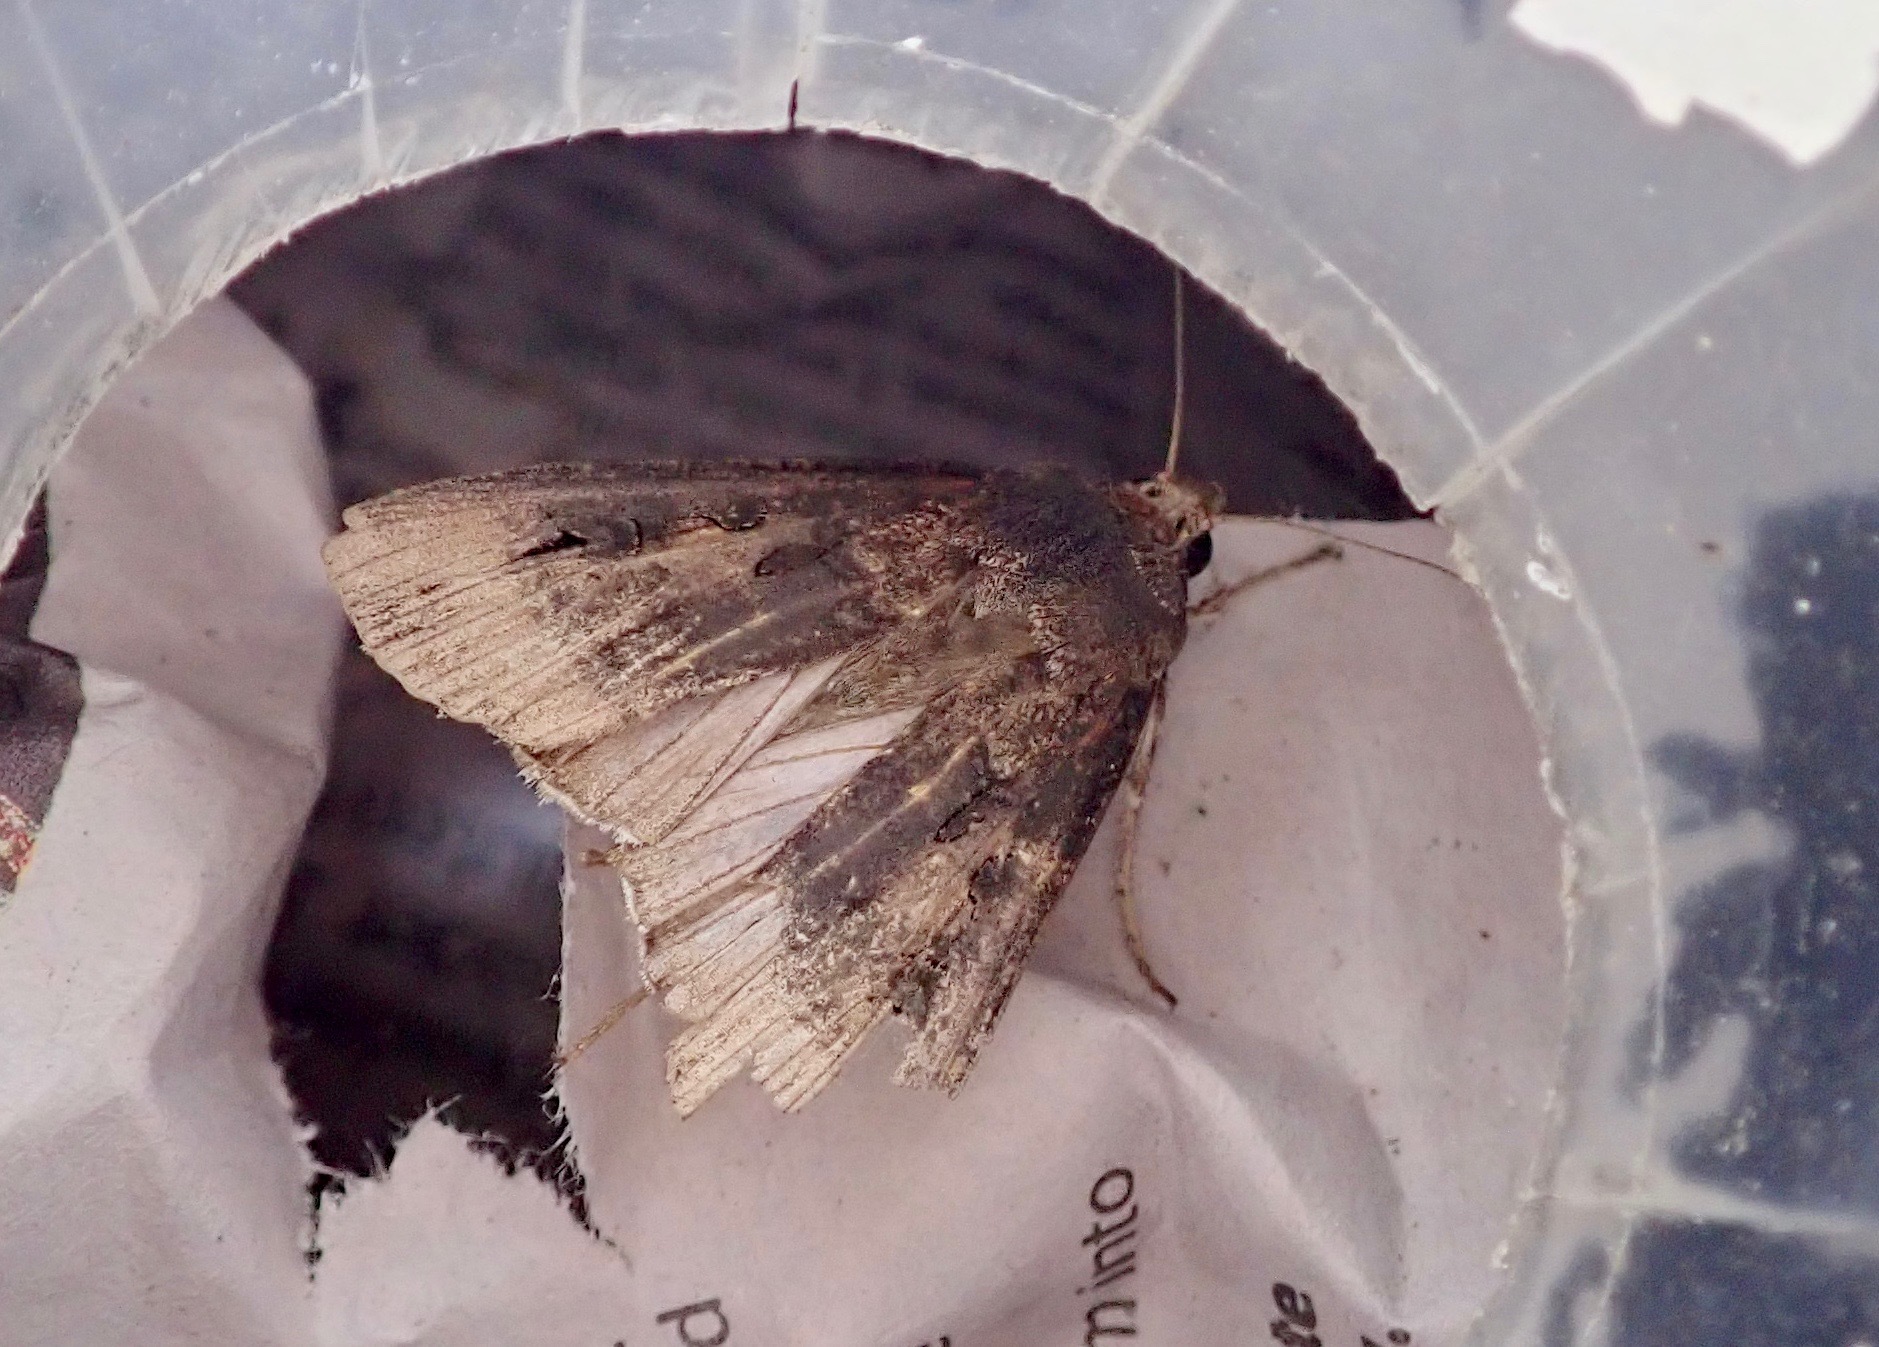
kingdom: Animalia
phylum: Arthropoda
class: Insecta
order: Lepidoptera
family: Noctuidae
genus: Agrotis
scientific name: Agrotis ipsilon
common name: Dark sword-grass
